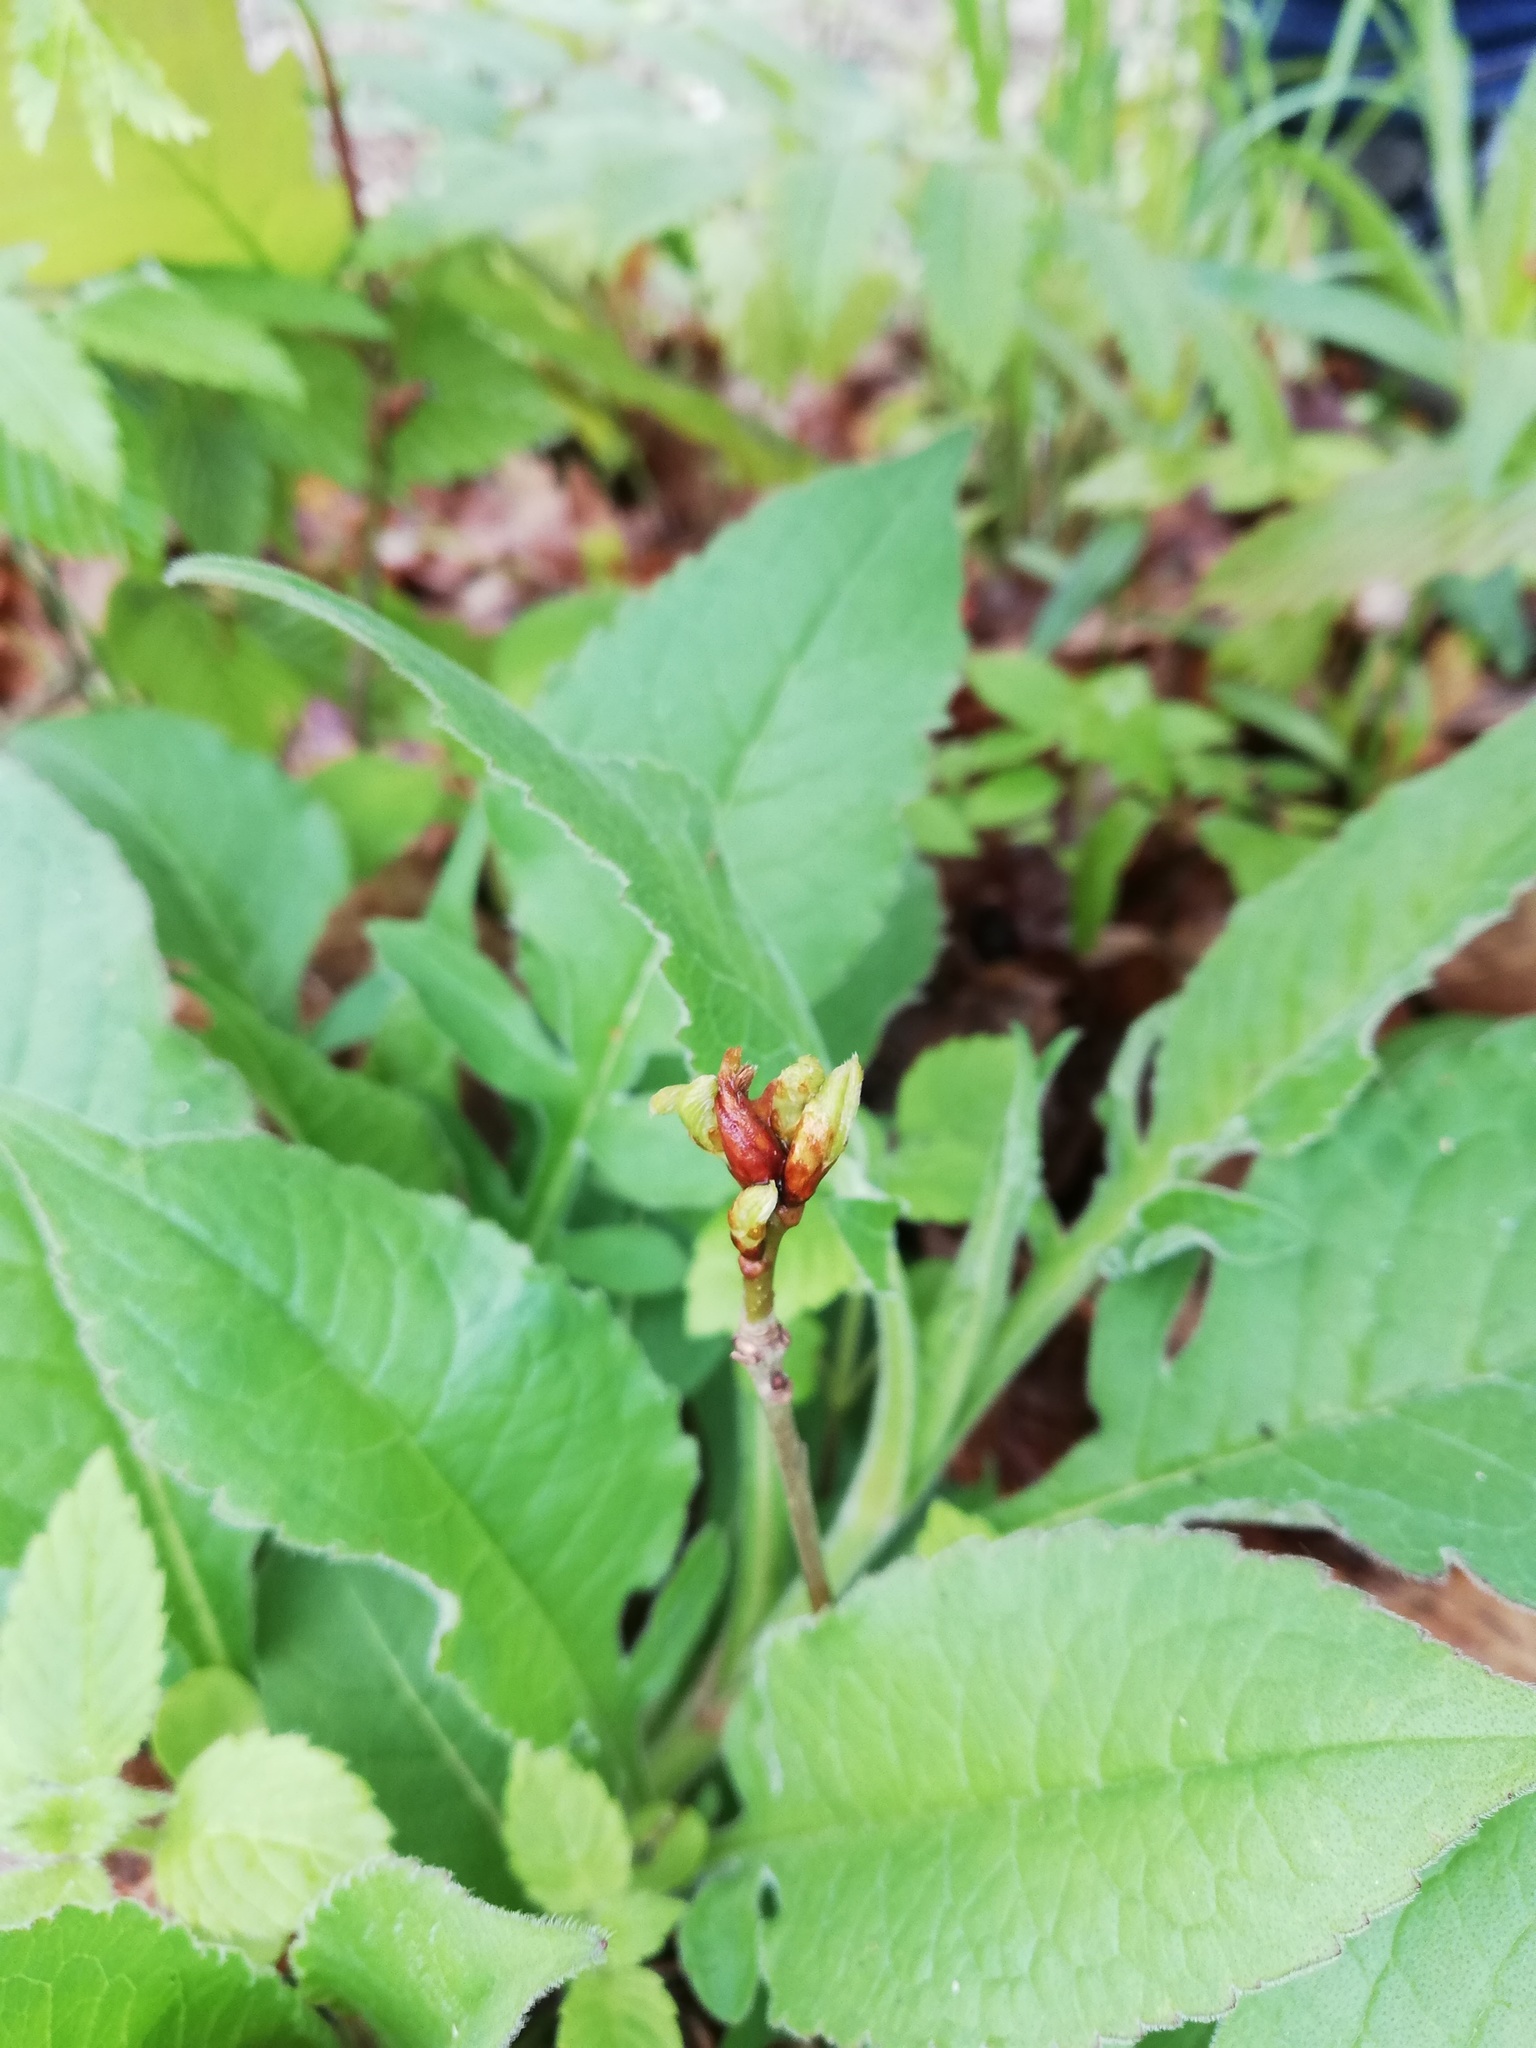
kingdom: Plantae
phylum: Tracheophyta
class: Magnoliopsida
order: Dipsacales
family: Caprifoliaceae
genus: Knautia
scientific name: Knautia drymeia
